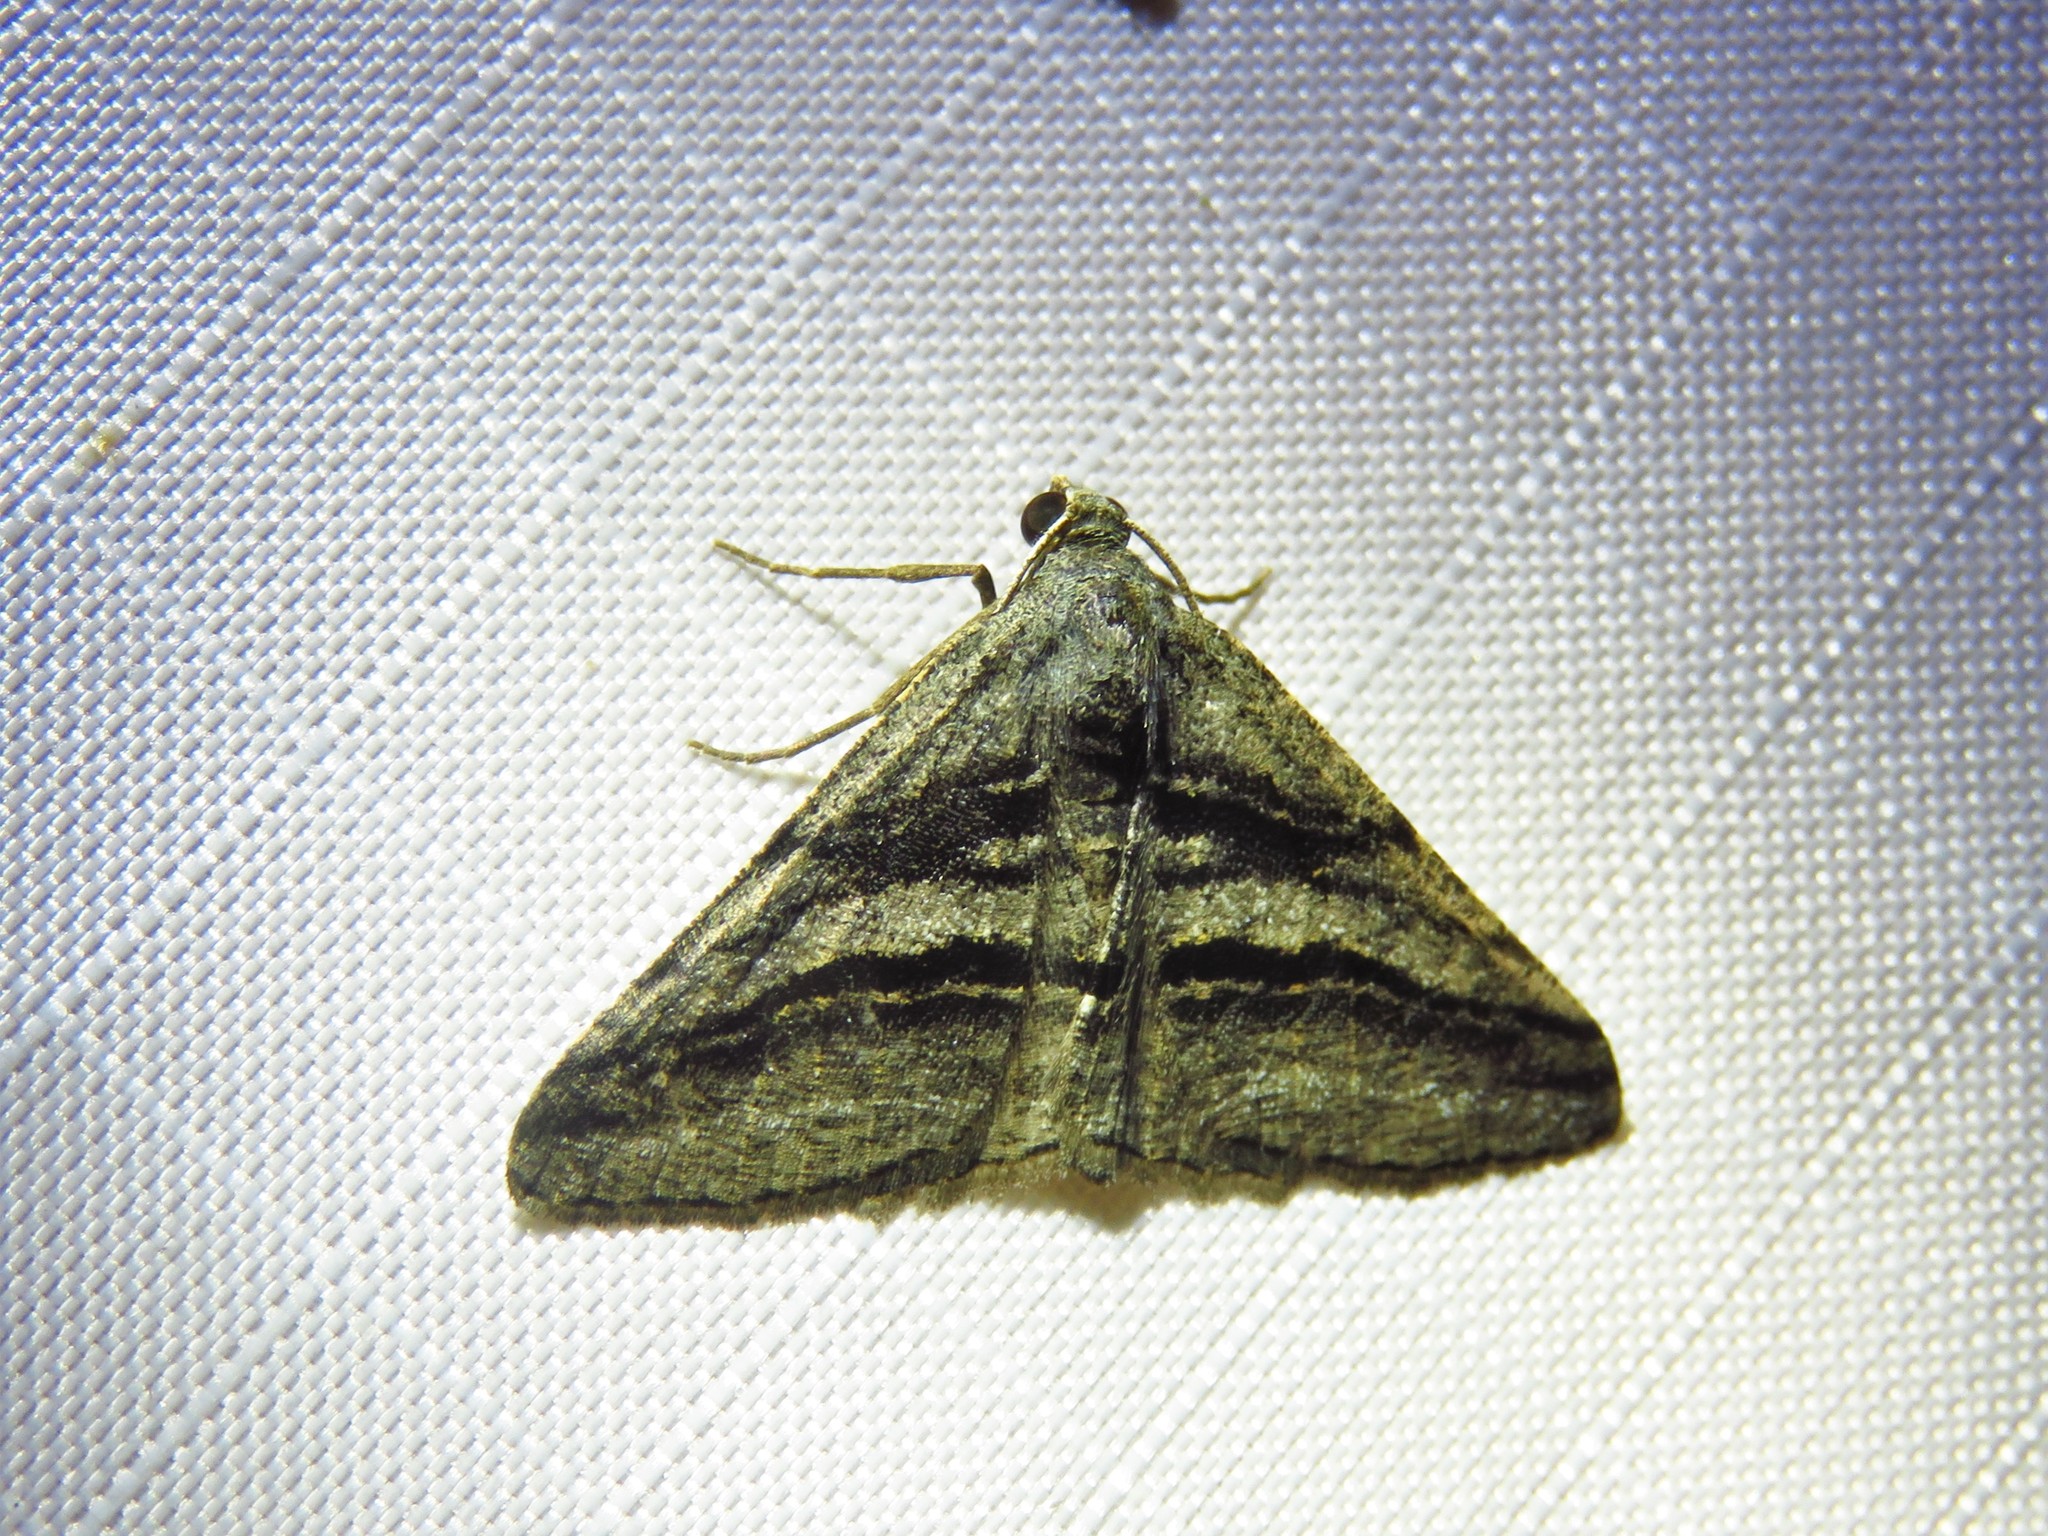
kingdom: Animalia
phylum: Arthropoda
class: Insecta
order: Lepidoptera
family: Geometridae
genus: Digrammia
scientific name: Digrammia atrofasciata
